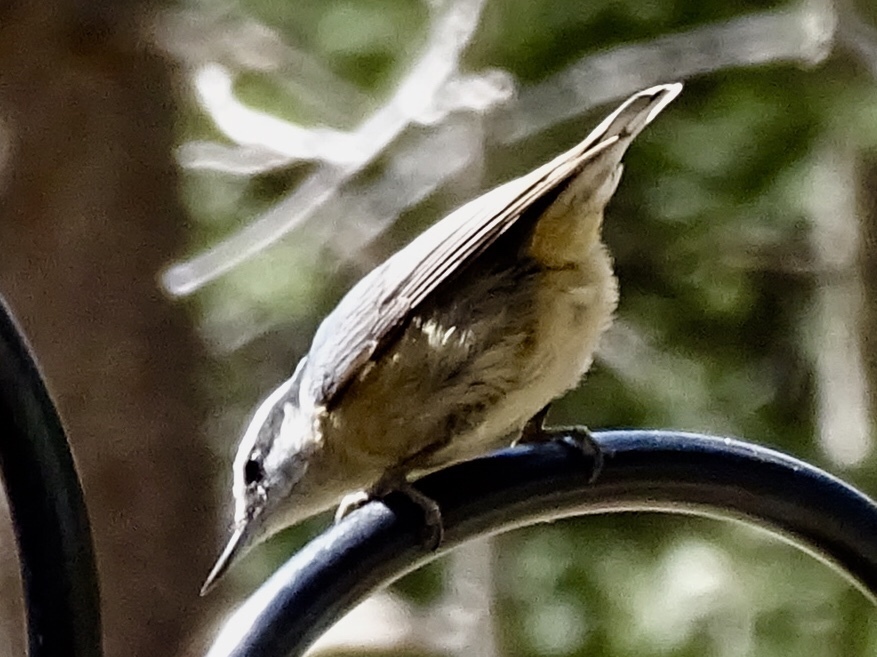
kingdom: Animalia
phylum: Chordata
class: Aves
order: Passeriformes
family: Sittidae
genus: Sitta
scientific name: Sitta canadensis
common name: Red-breasted nuthatch
